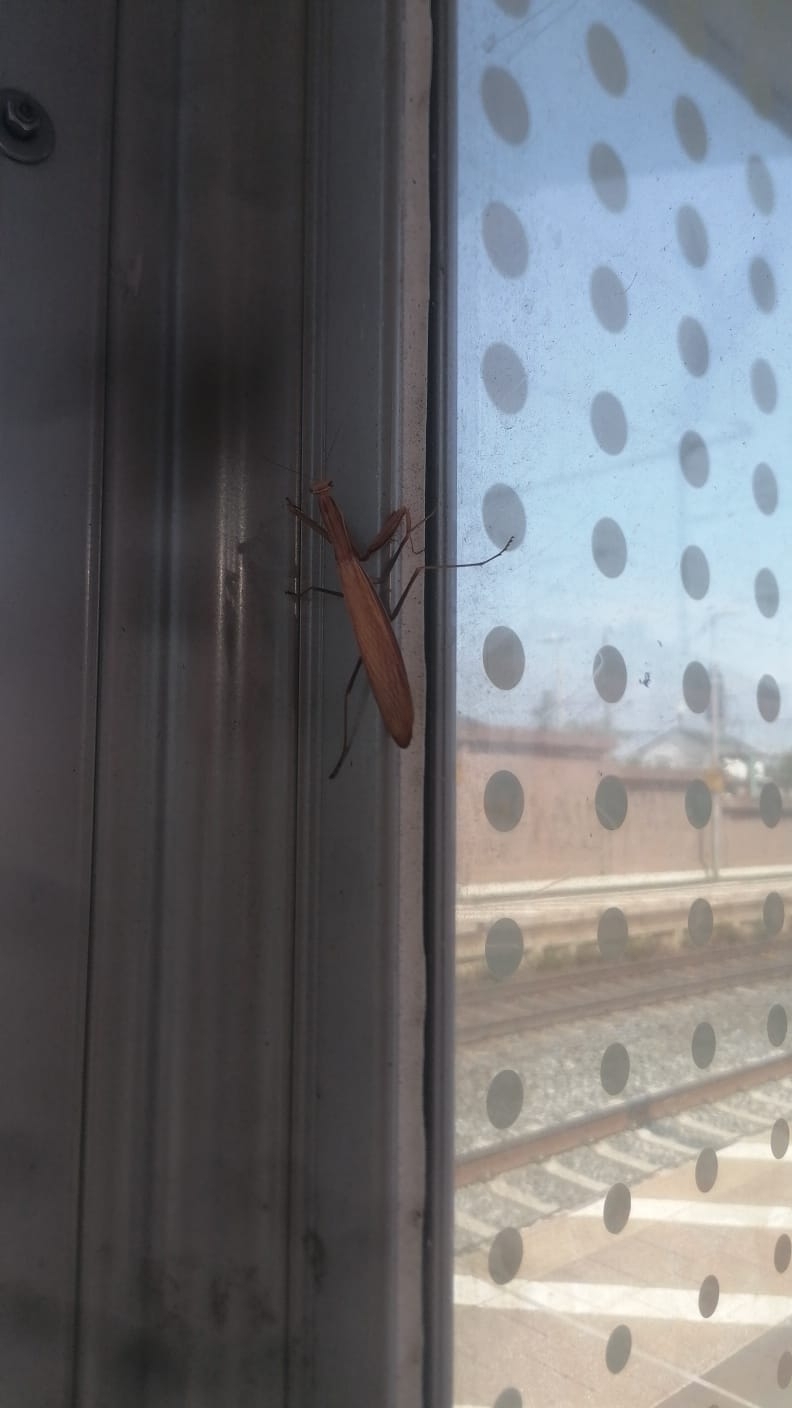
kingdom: Animalia
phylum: Arthropoda
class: Insecta
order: Mantodea
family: Mantidae
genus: Mantis
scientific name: Mantis religiosa
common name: Praying mantis
